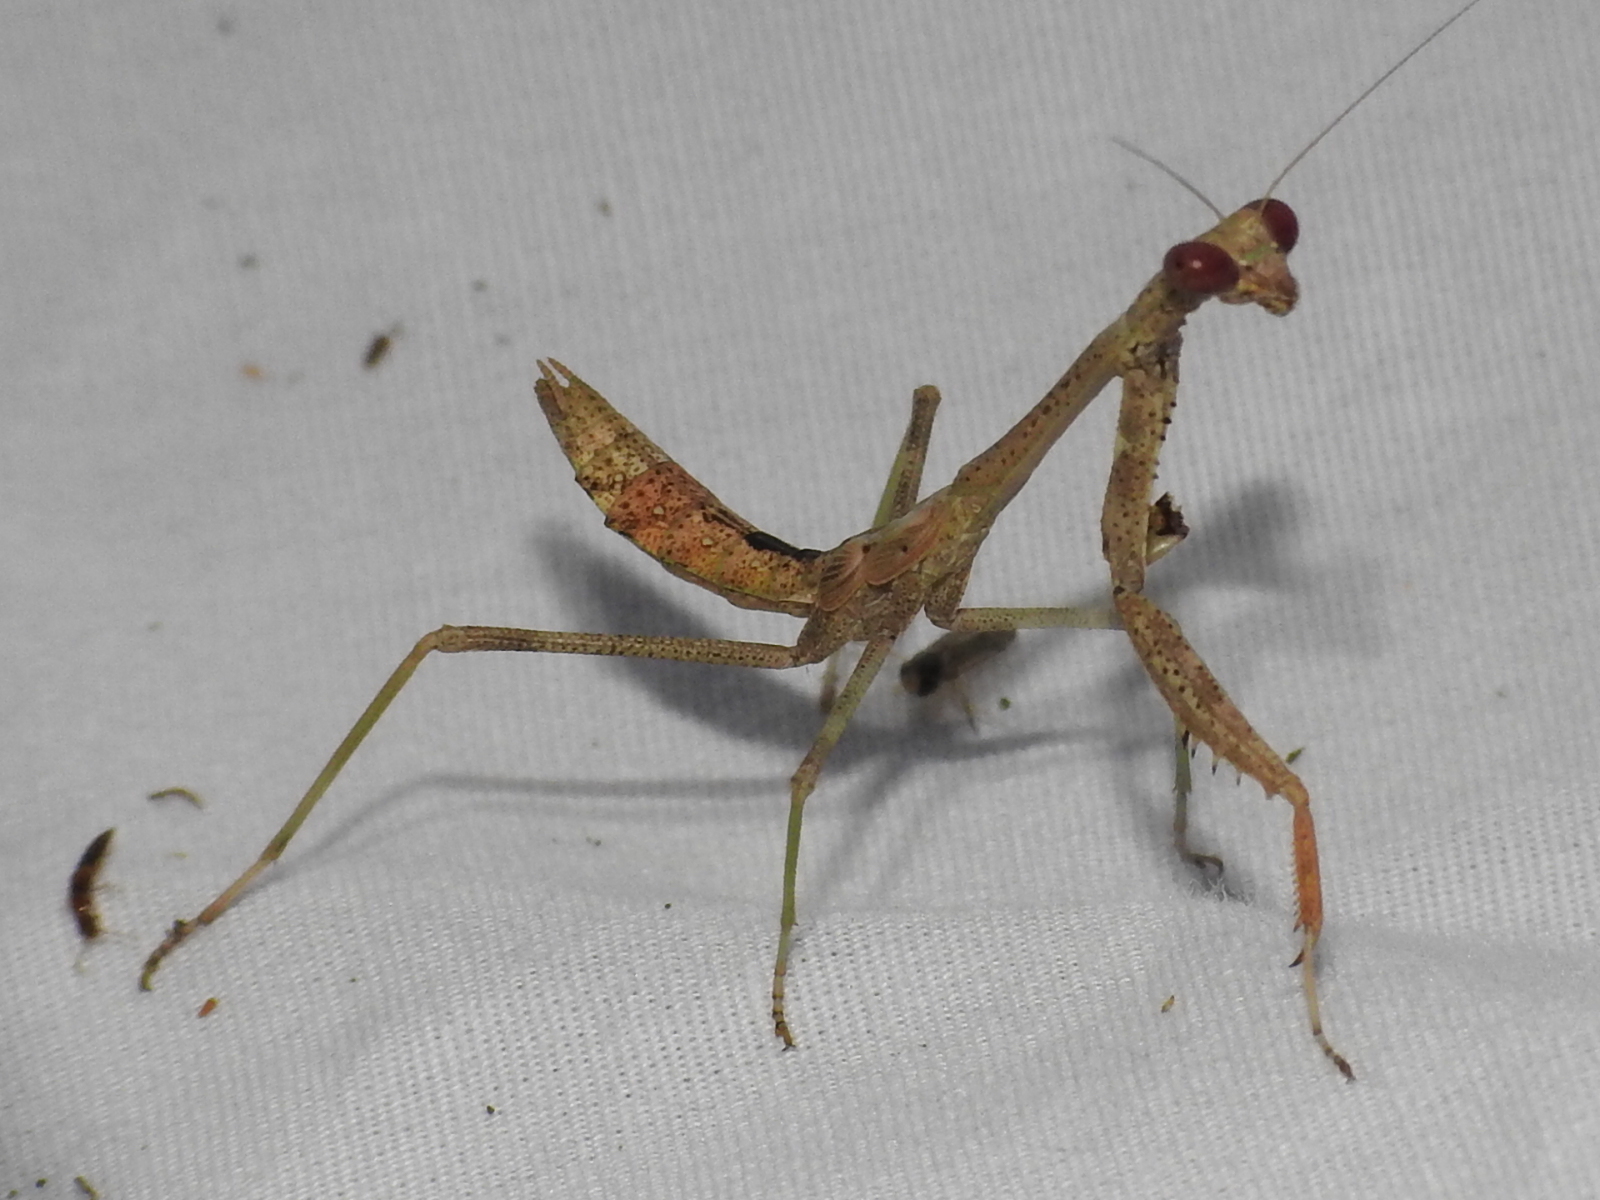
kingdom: Animalia
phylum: Arthropoda
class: Insecta
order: Mantodea
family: Mantidae
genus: Stagmomantis
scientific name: Stagmomantis resacae
